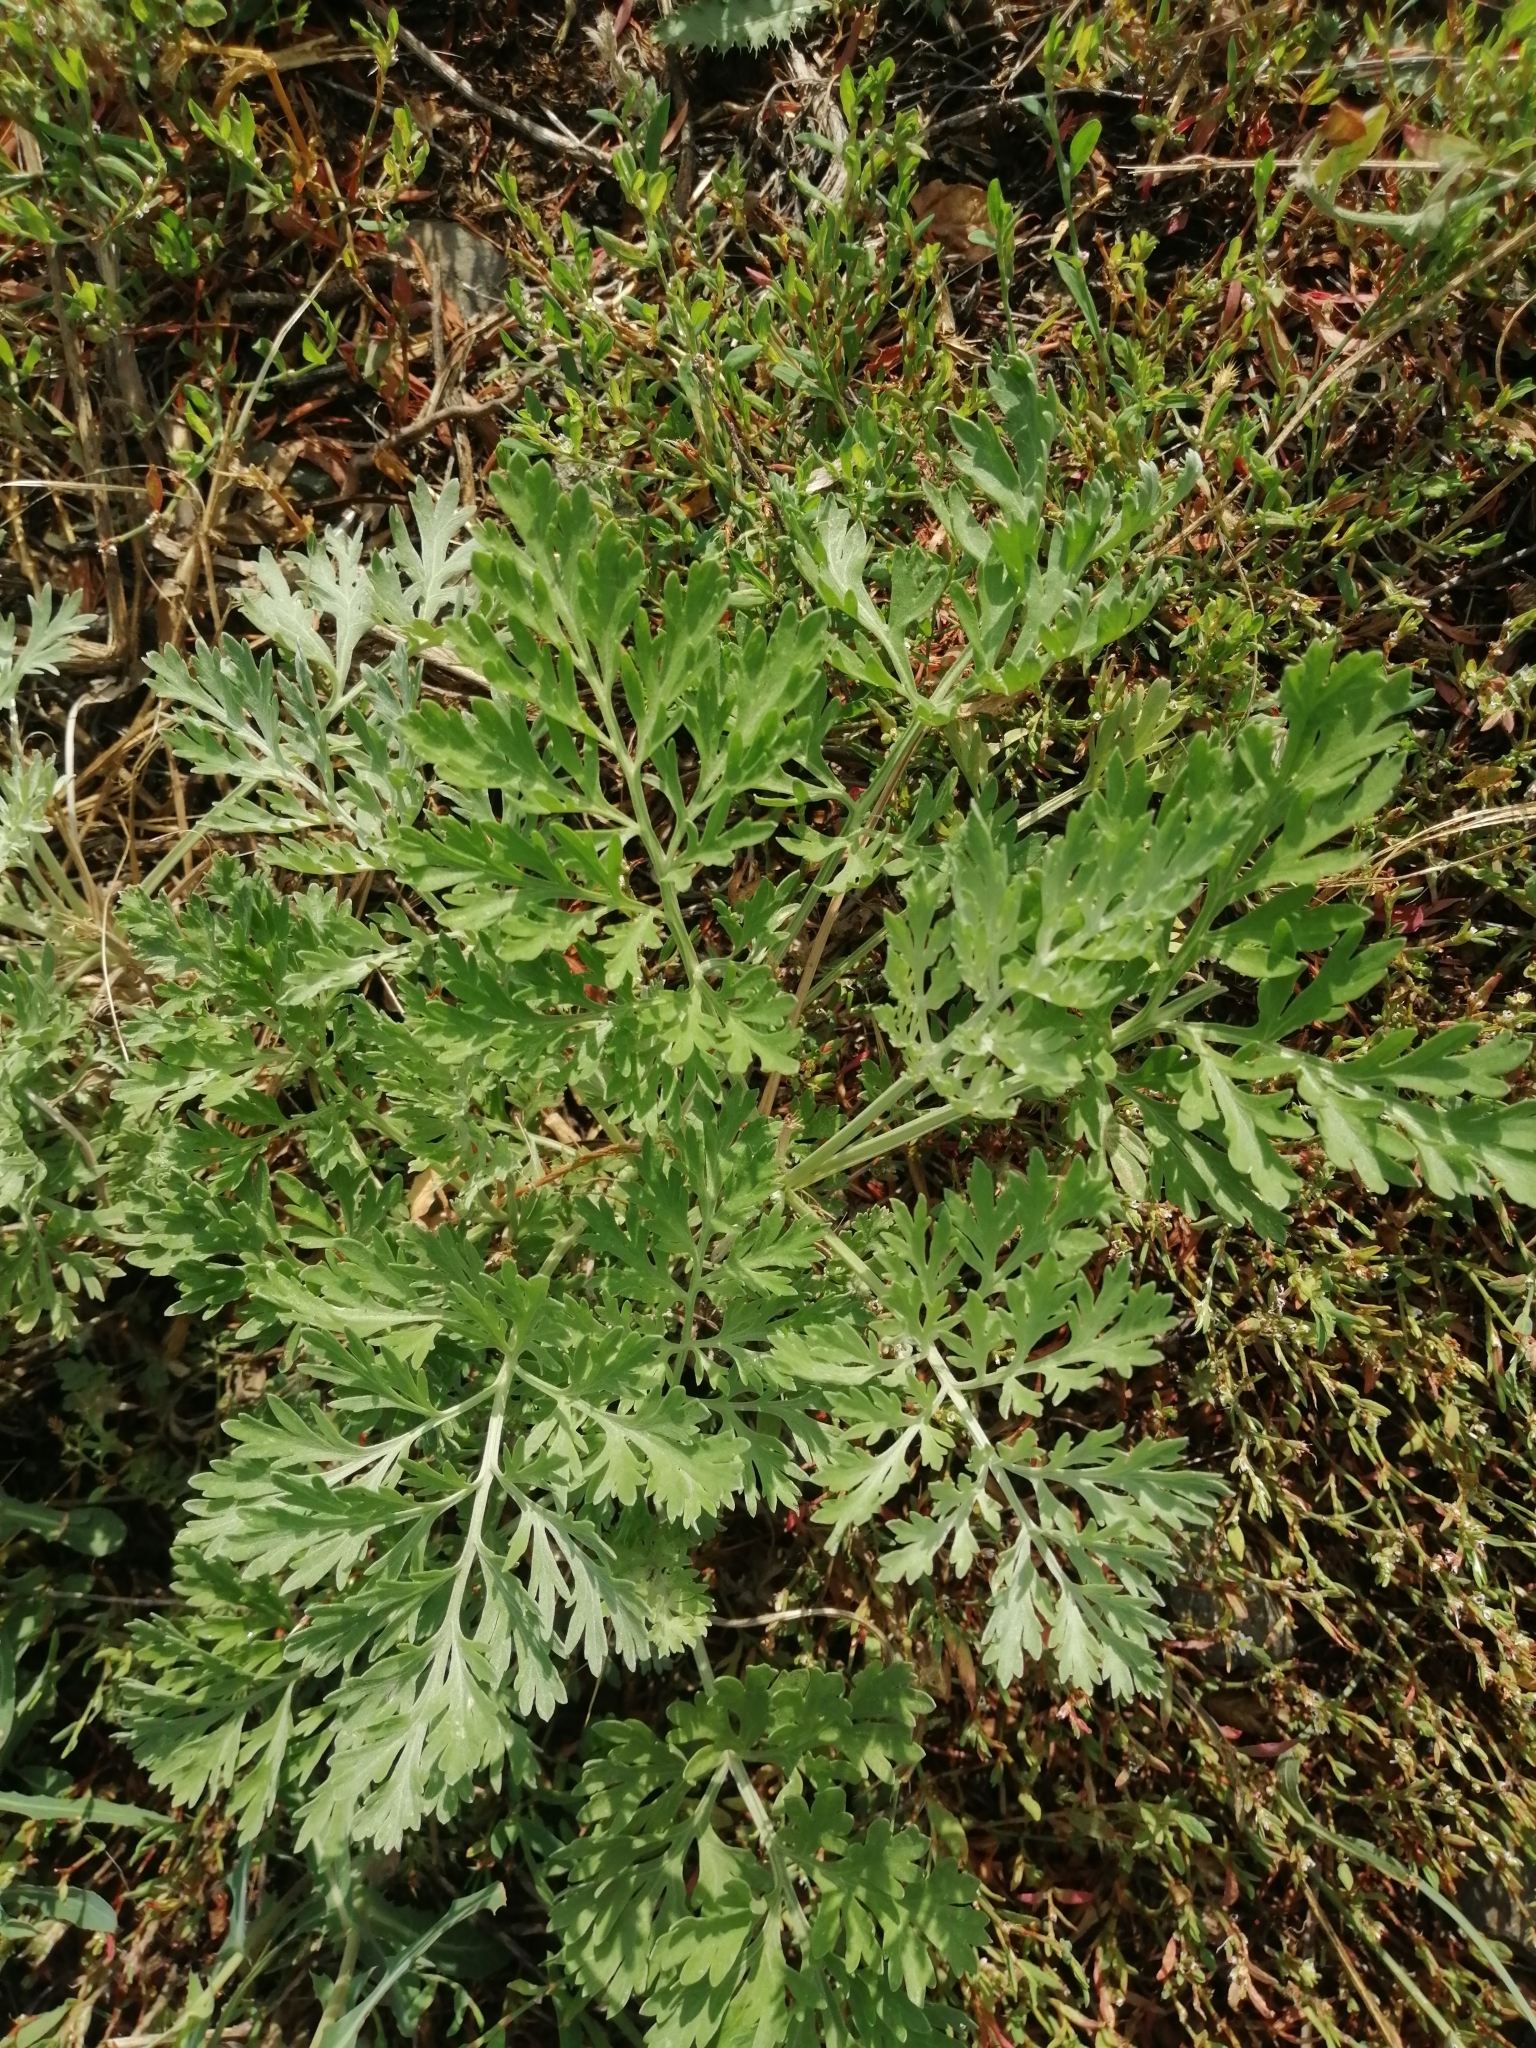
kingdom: Plantae
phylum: Tracheophyta
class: Magnoliopsida
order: Asterales
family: Asteraceae
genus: Artemisia
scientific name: Artemisia absinthium
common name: Wormwood
